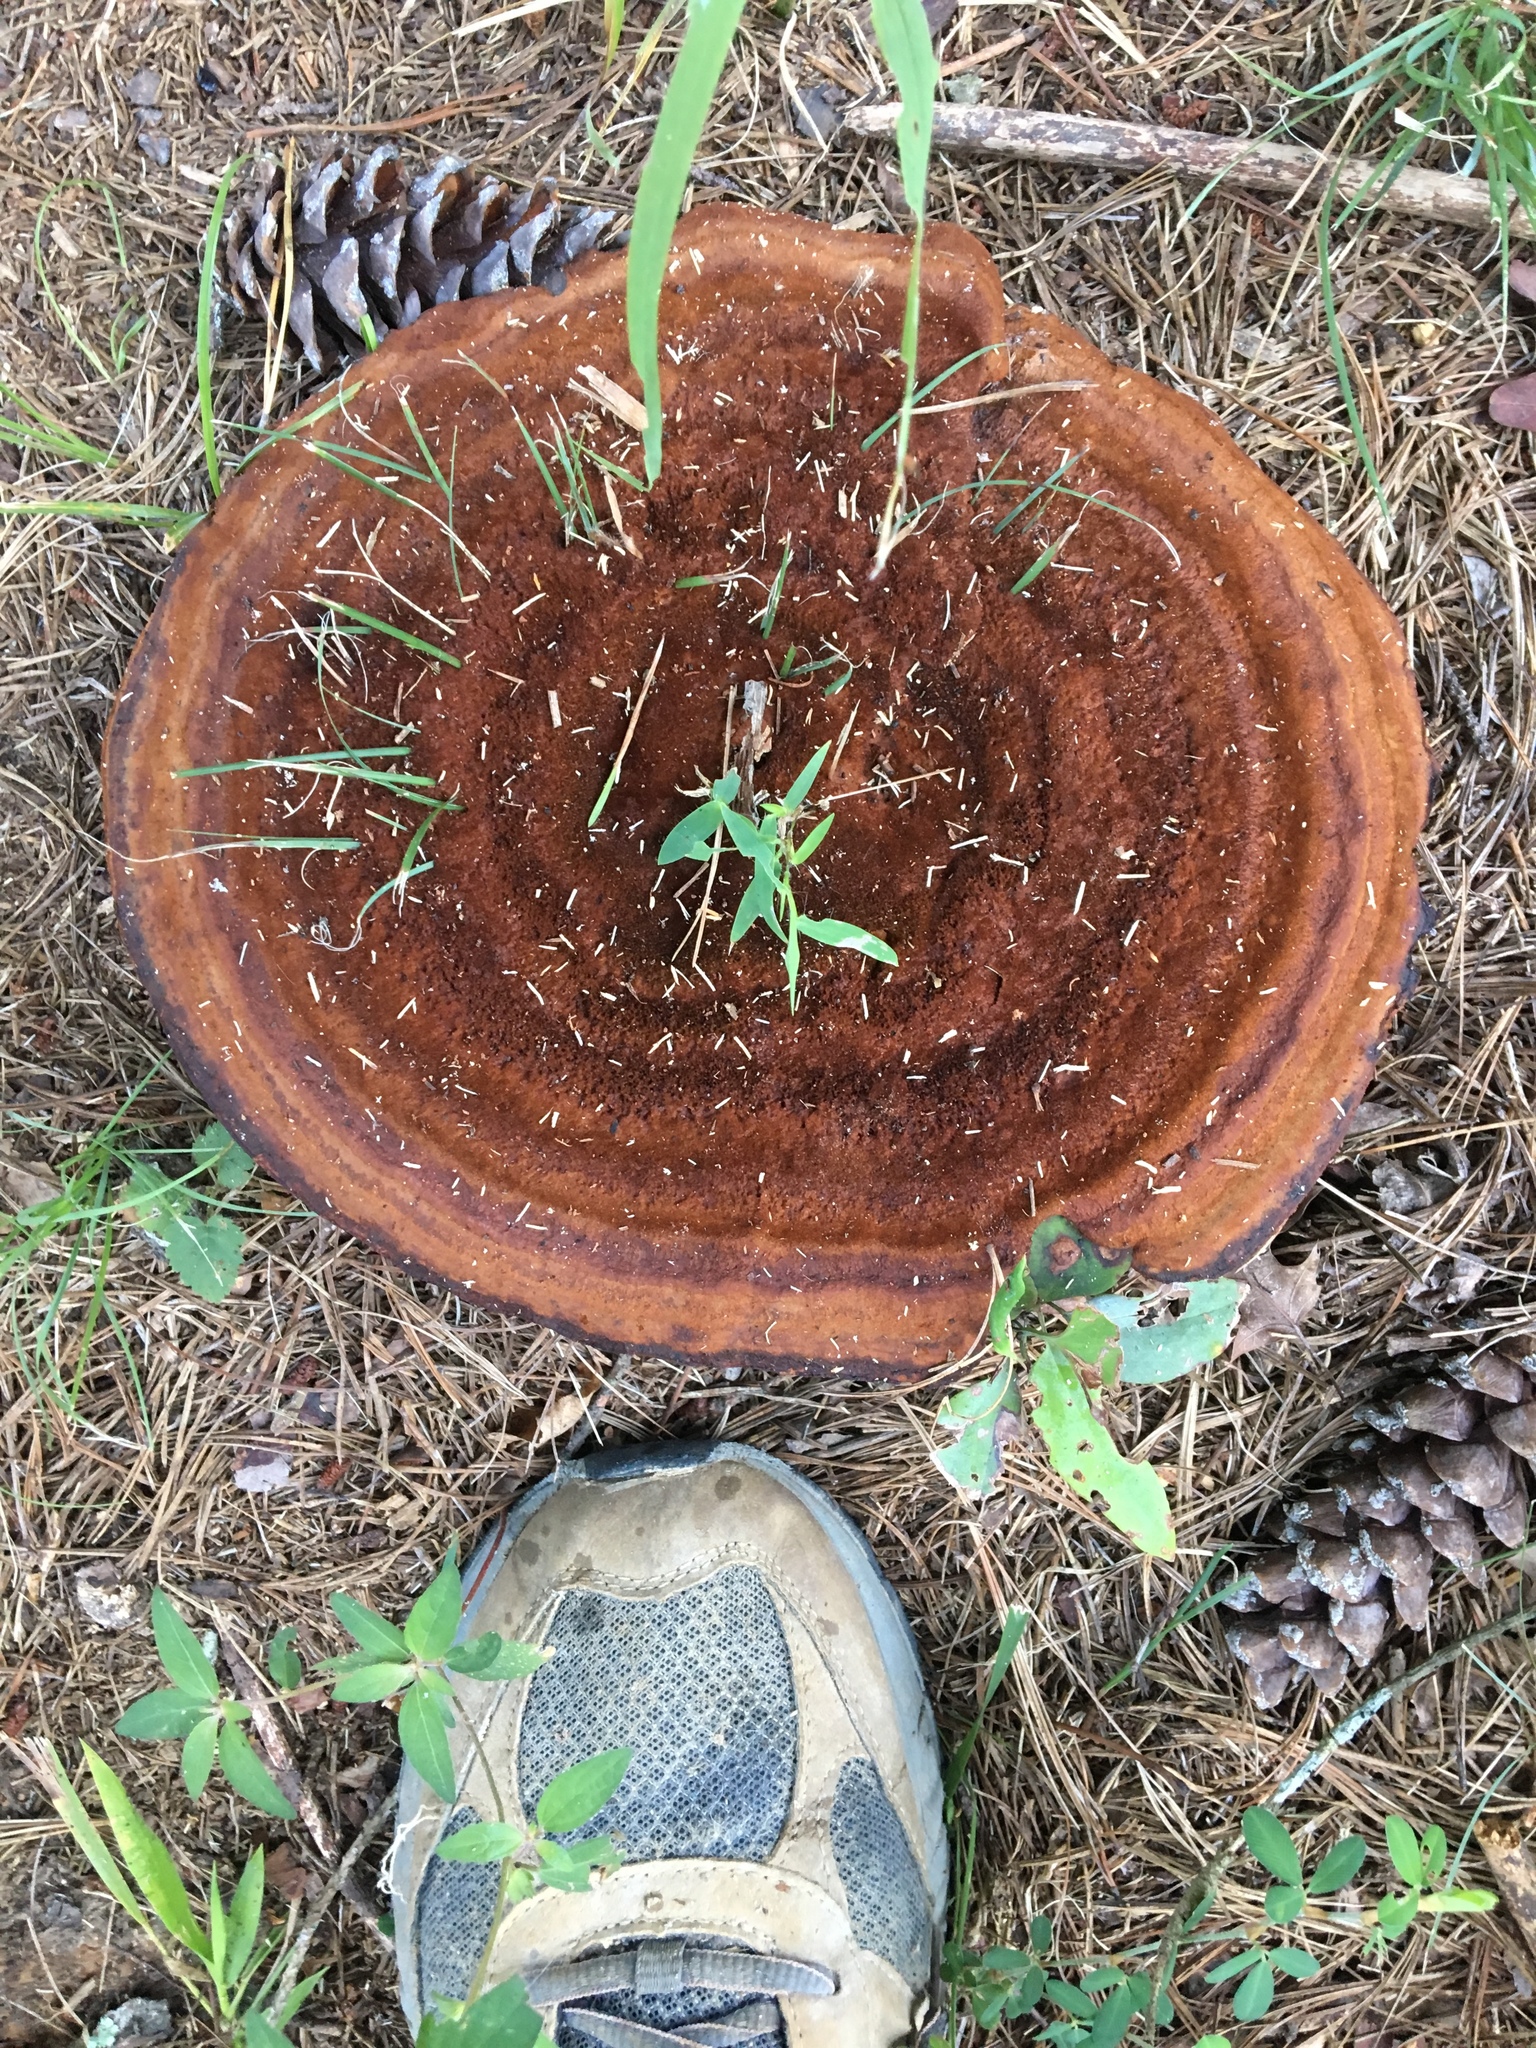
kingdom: Fungi
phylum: Basidiomycota
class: Agaricomycetes
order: Polyporales
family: Laetiporaceae
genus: Phaeolus
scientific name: Phaeolus schweinitzii
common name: Dyer's mazegill
